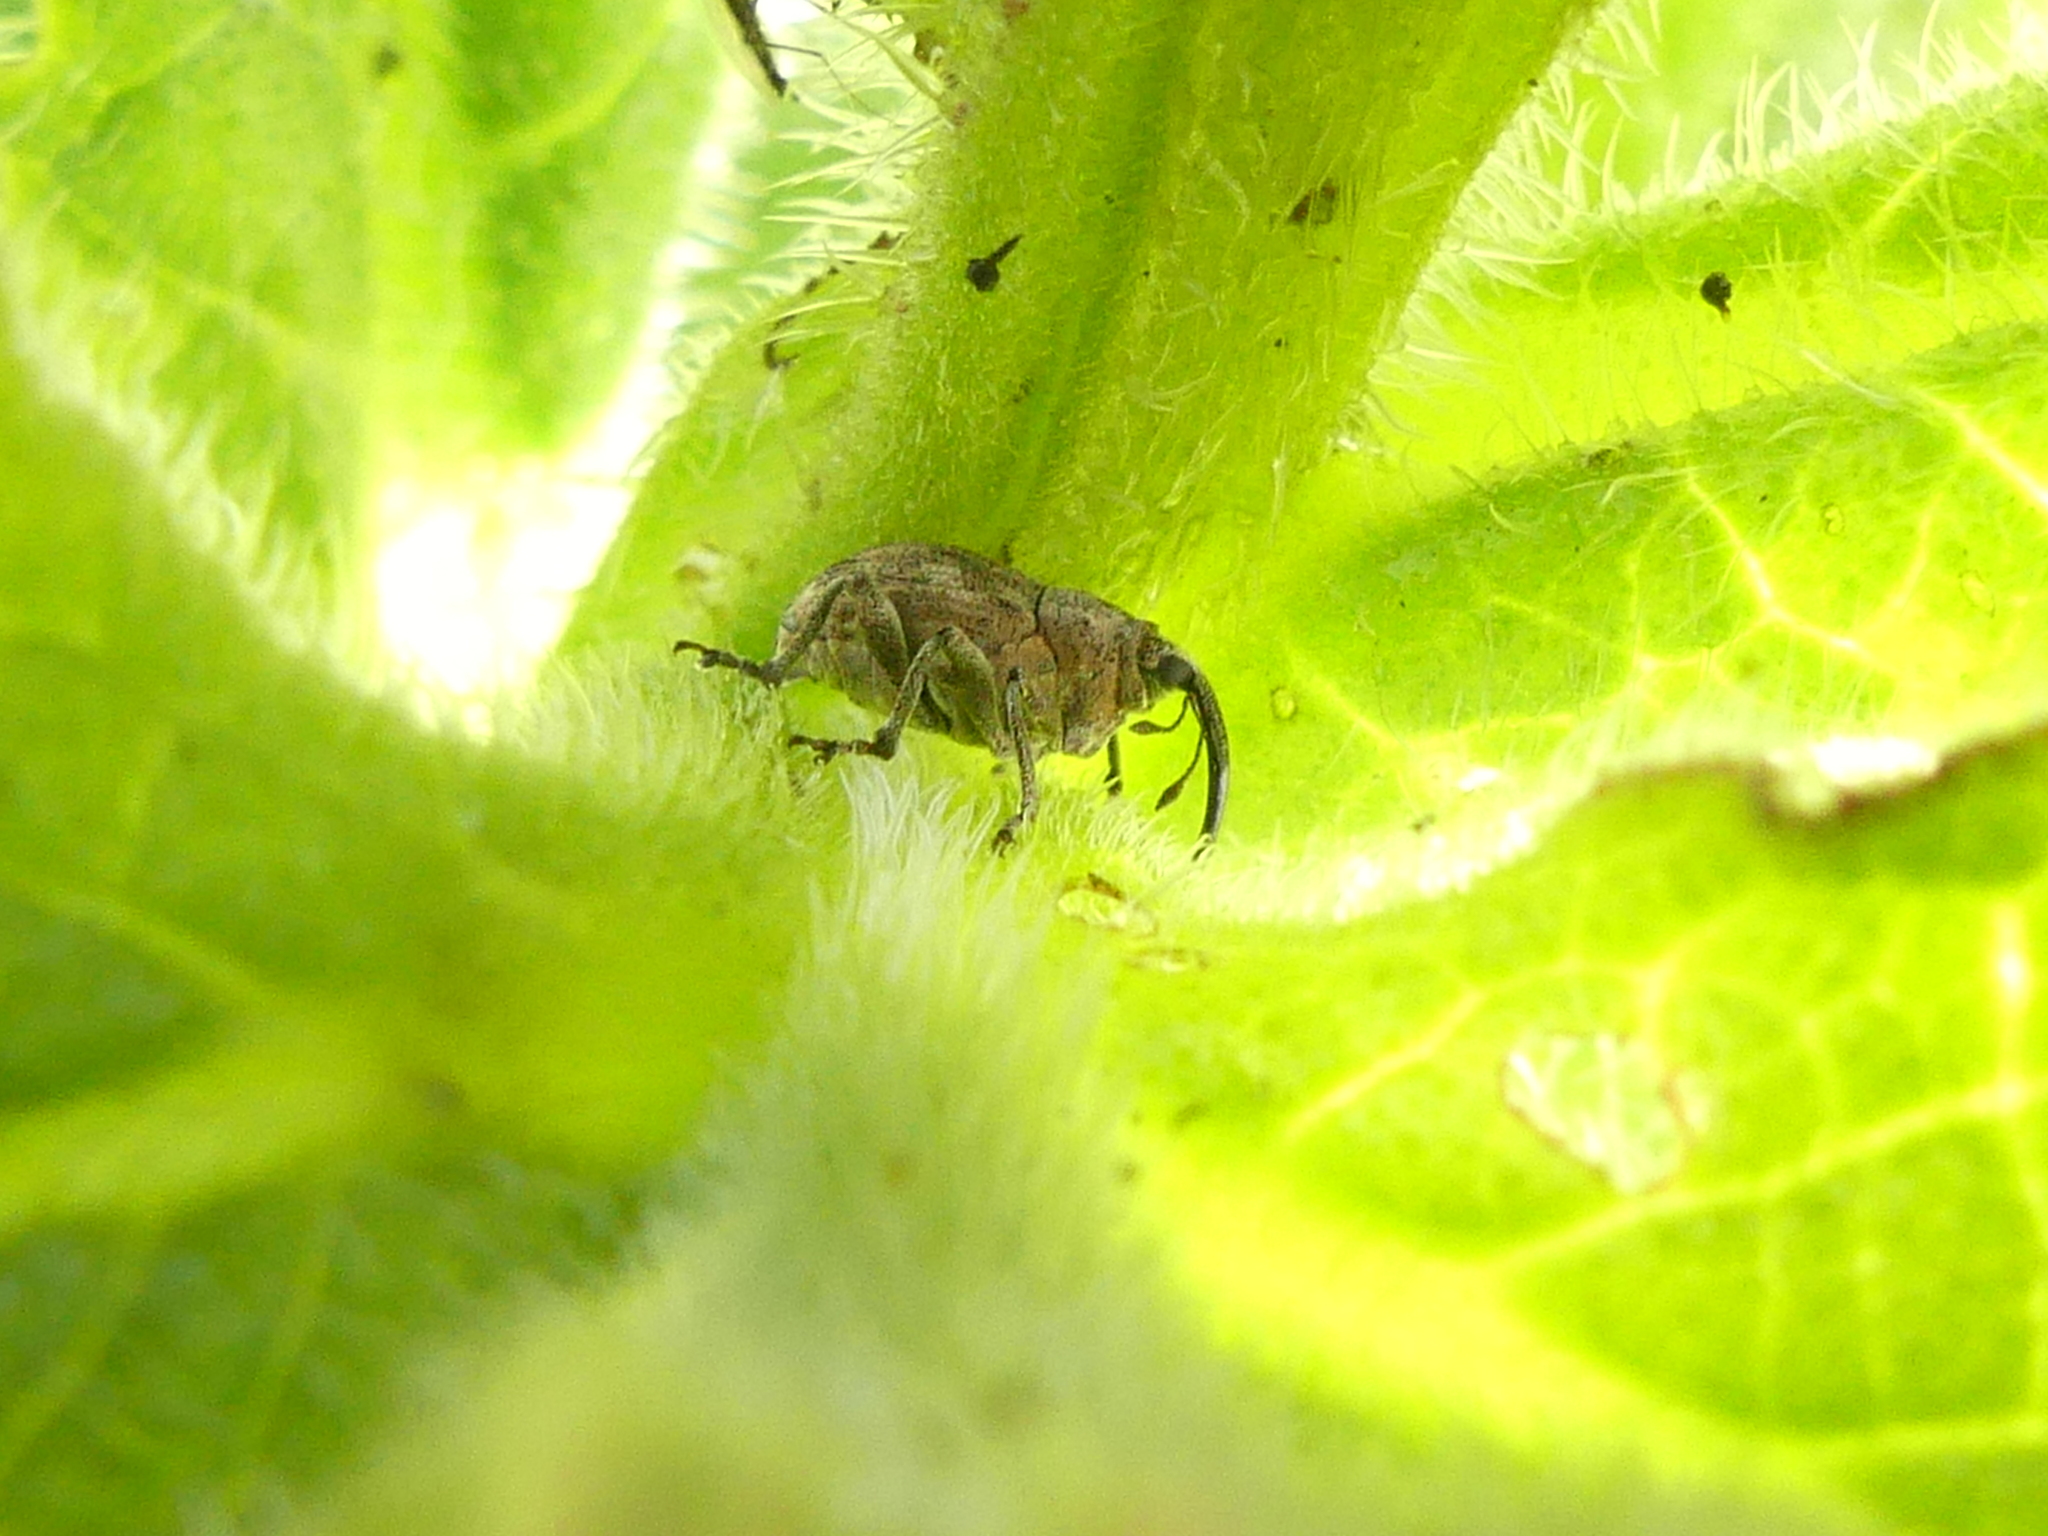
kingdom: Animalia
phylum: Arthropoda
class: Insecta
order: Coleoptera
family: Curculionidae
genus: Ceuthorhynchus
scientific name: Ceuthorhynchus angulosus
